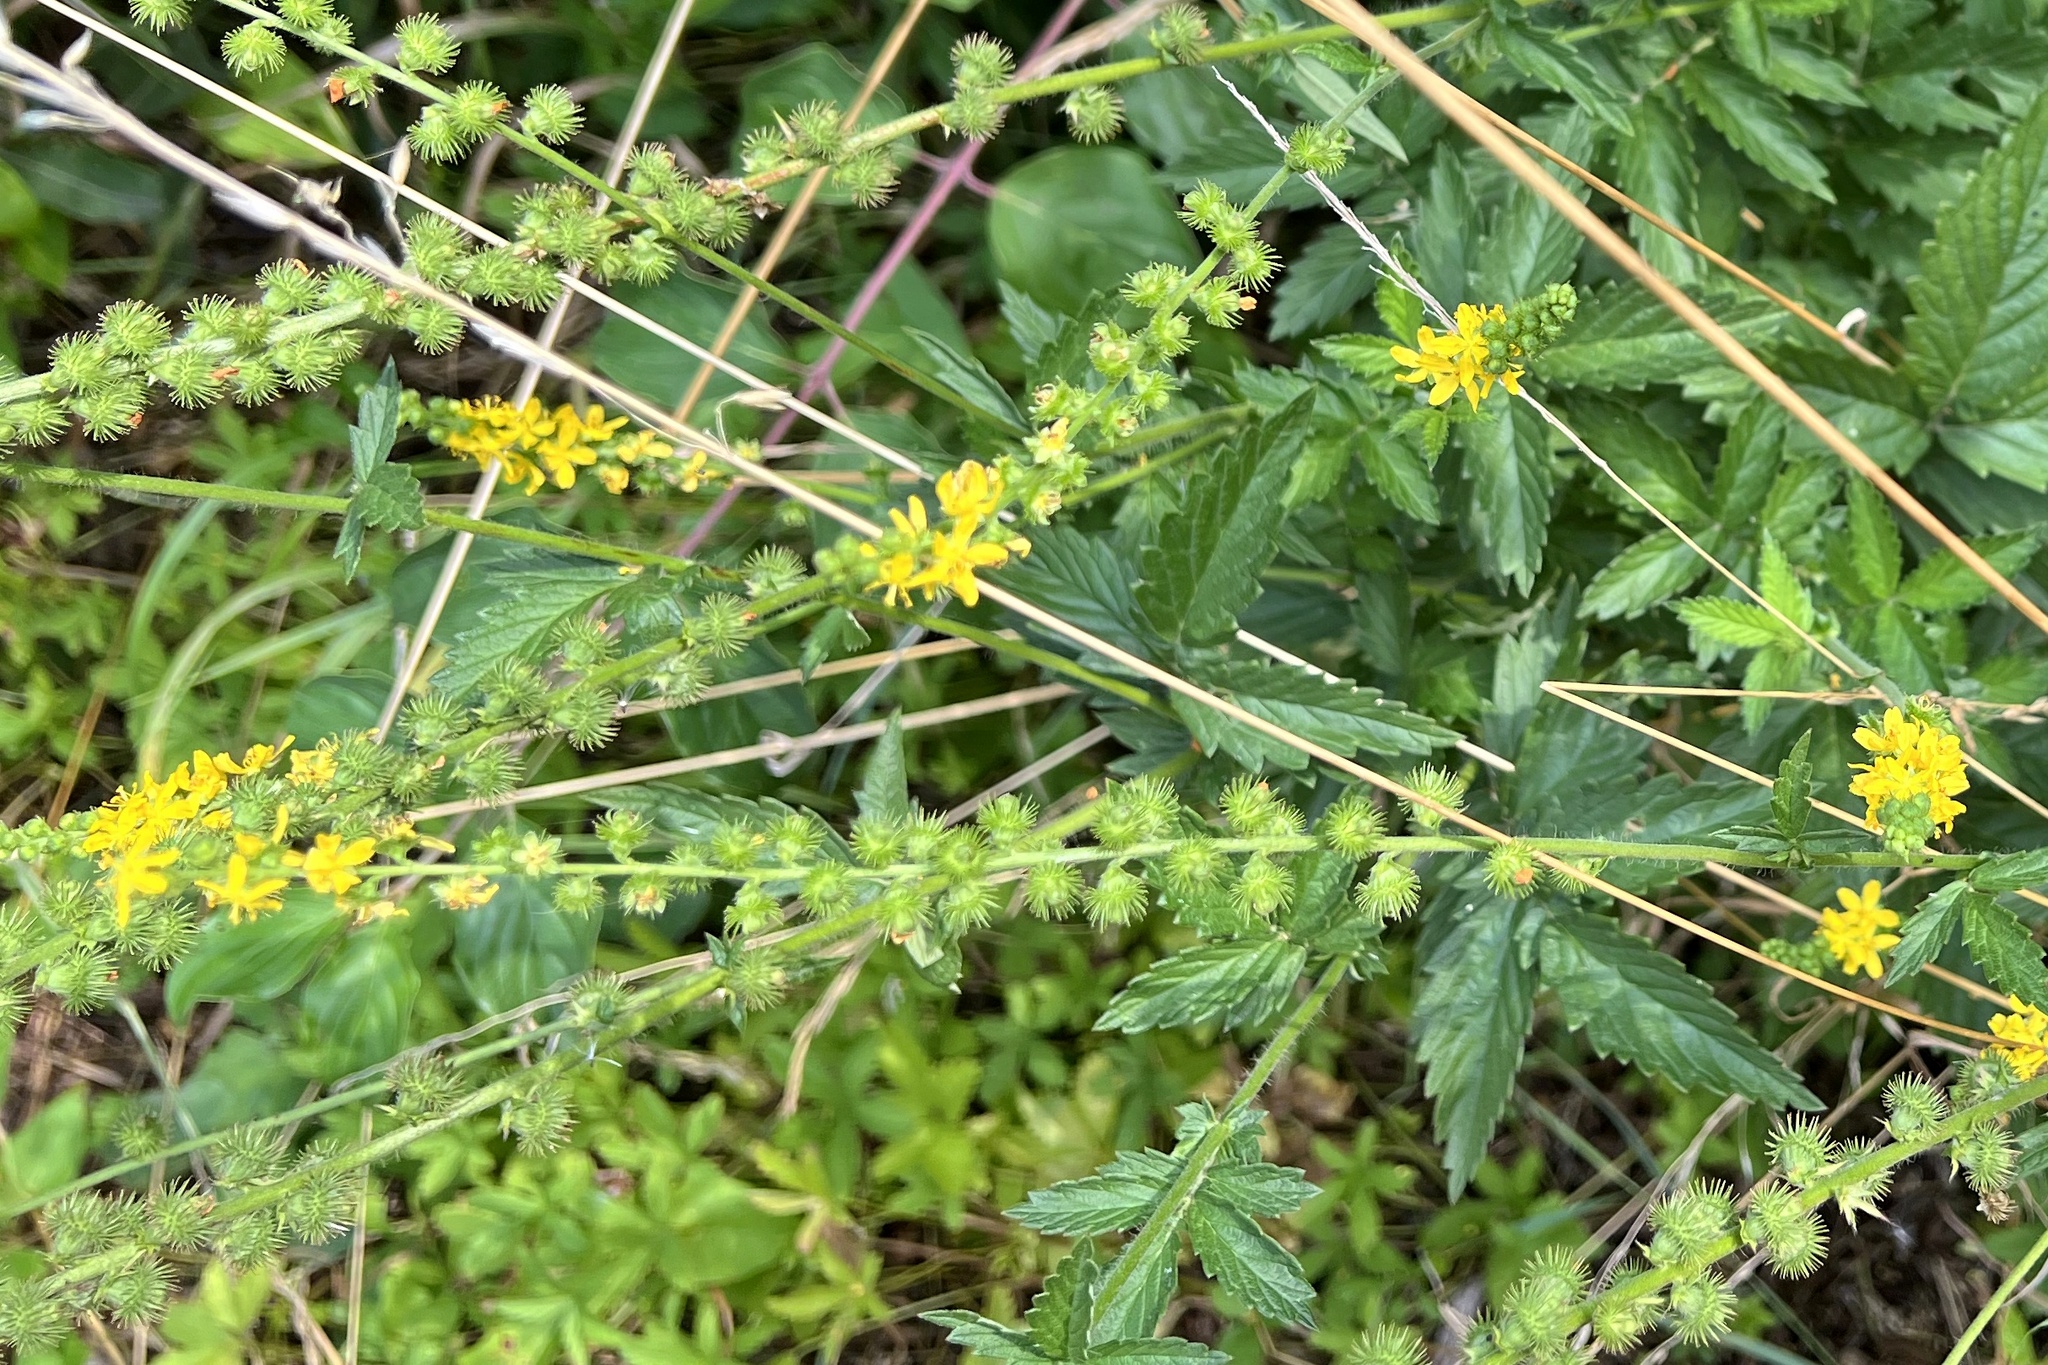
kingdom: Plantae
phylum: Tracheophyta
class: Magnoliopsida
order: Rosales
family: Rosaceae
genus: Agrimonia
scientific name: Agrimonia procera
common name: Fragrant agrimony
